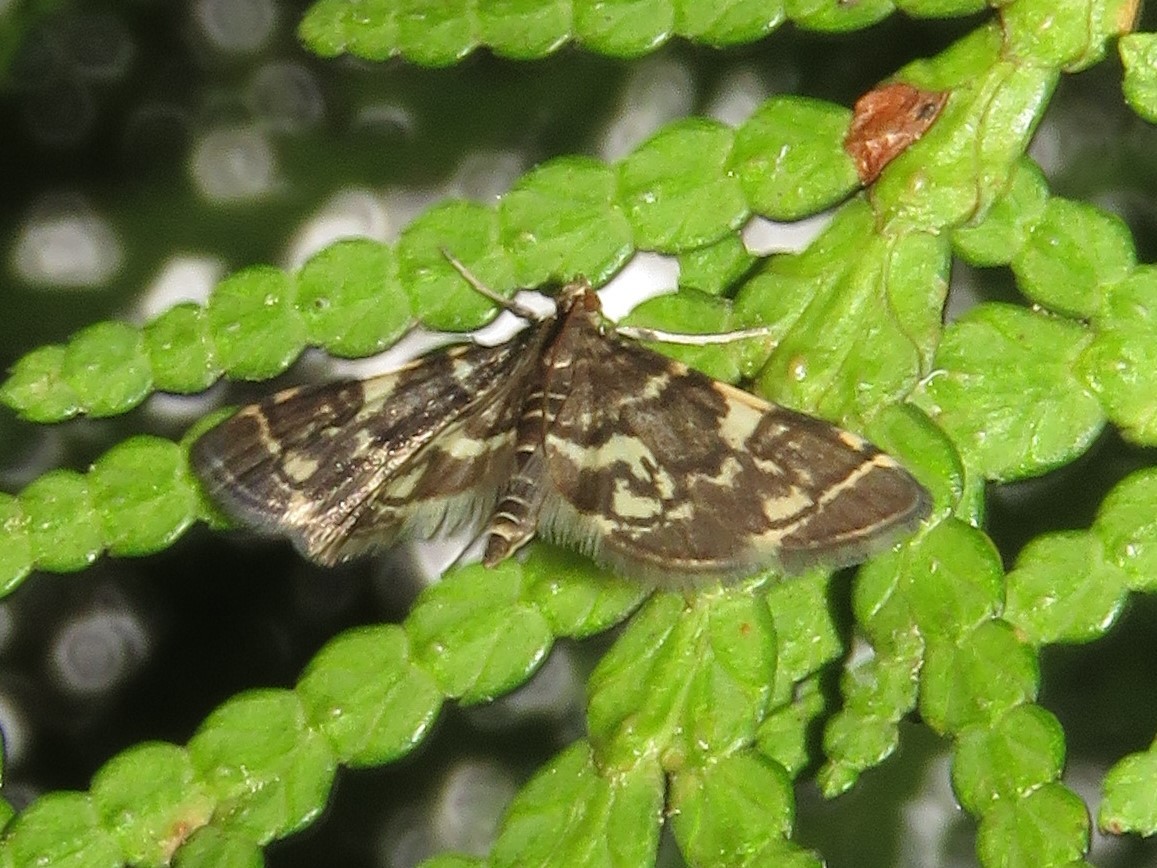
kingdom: Animalia
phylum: Arthropoda
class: Insecta
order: Lepidoptera
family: Crambidae
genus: Anageshna
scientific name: Anageshna primordialis
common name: Yellow-spotted webworm moth
